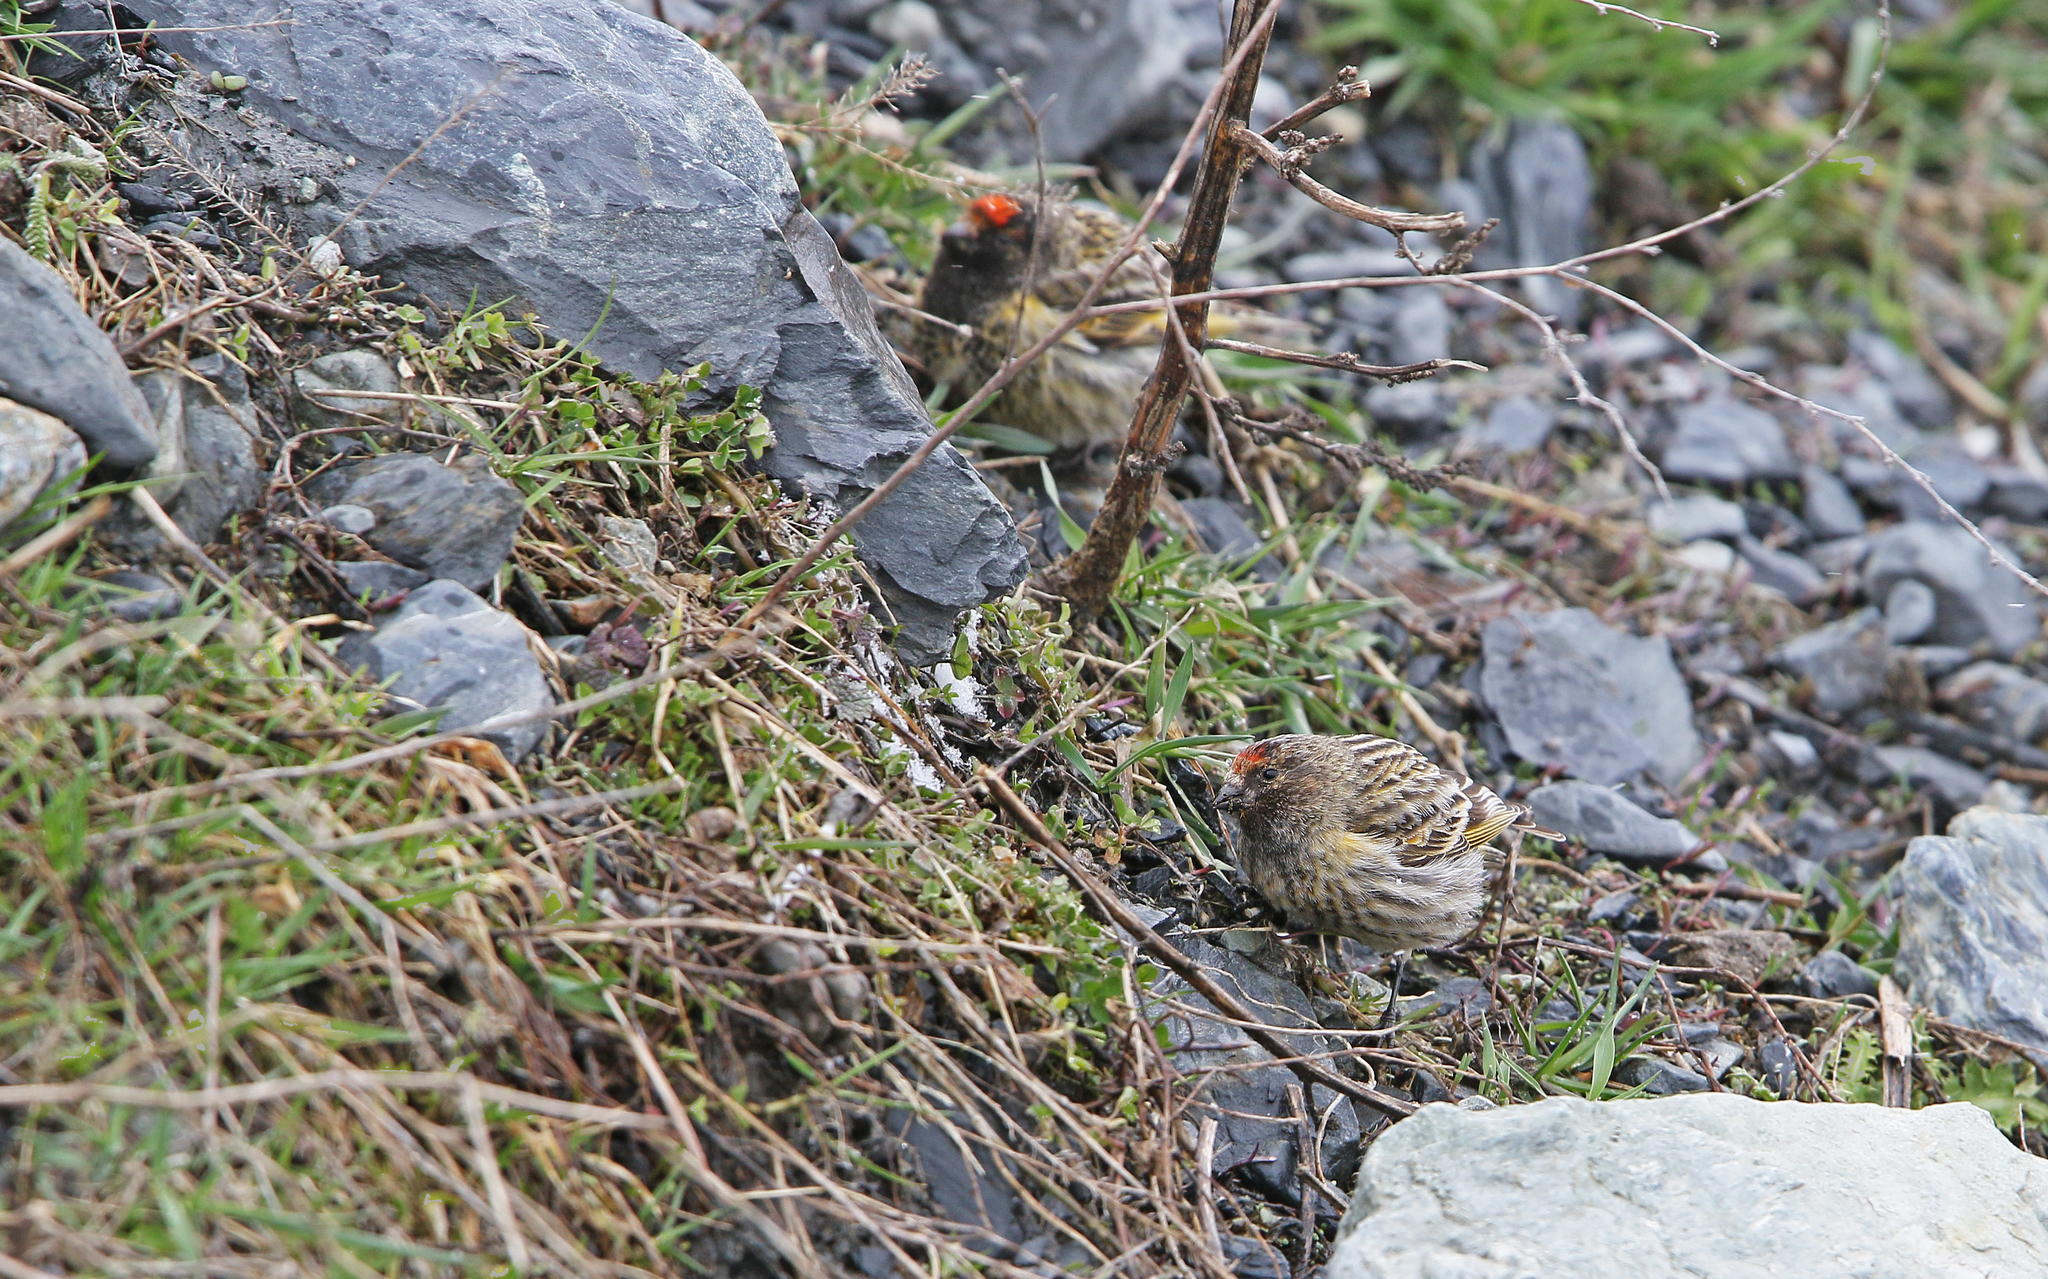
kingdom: Animalia
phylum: Chordata
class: Aves
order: Passeriformes
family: Fringillidae
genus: Serinus
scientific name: Serinus pusillus
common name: Red-fronted serin
